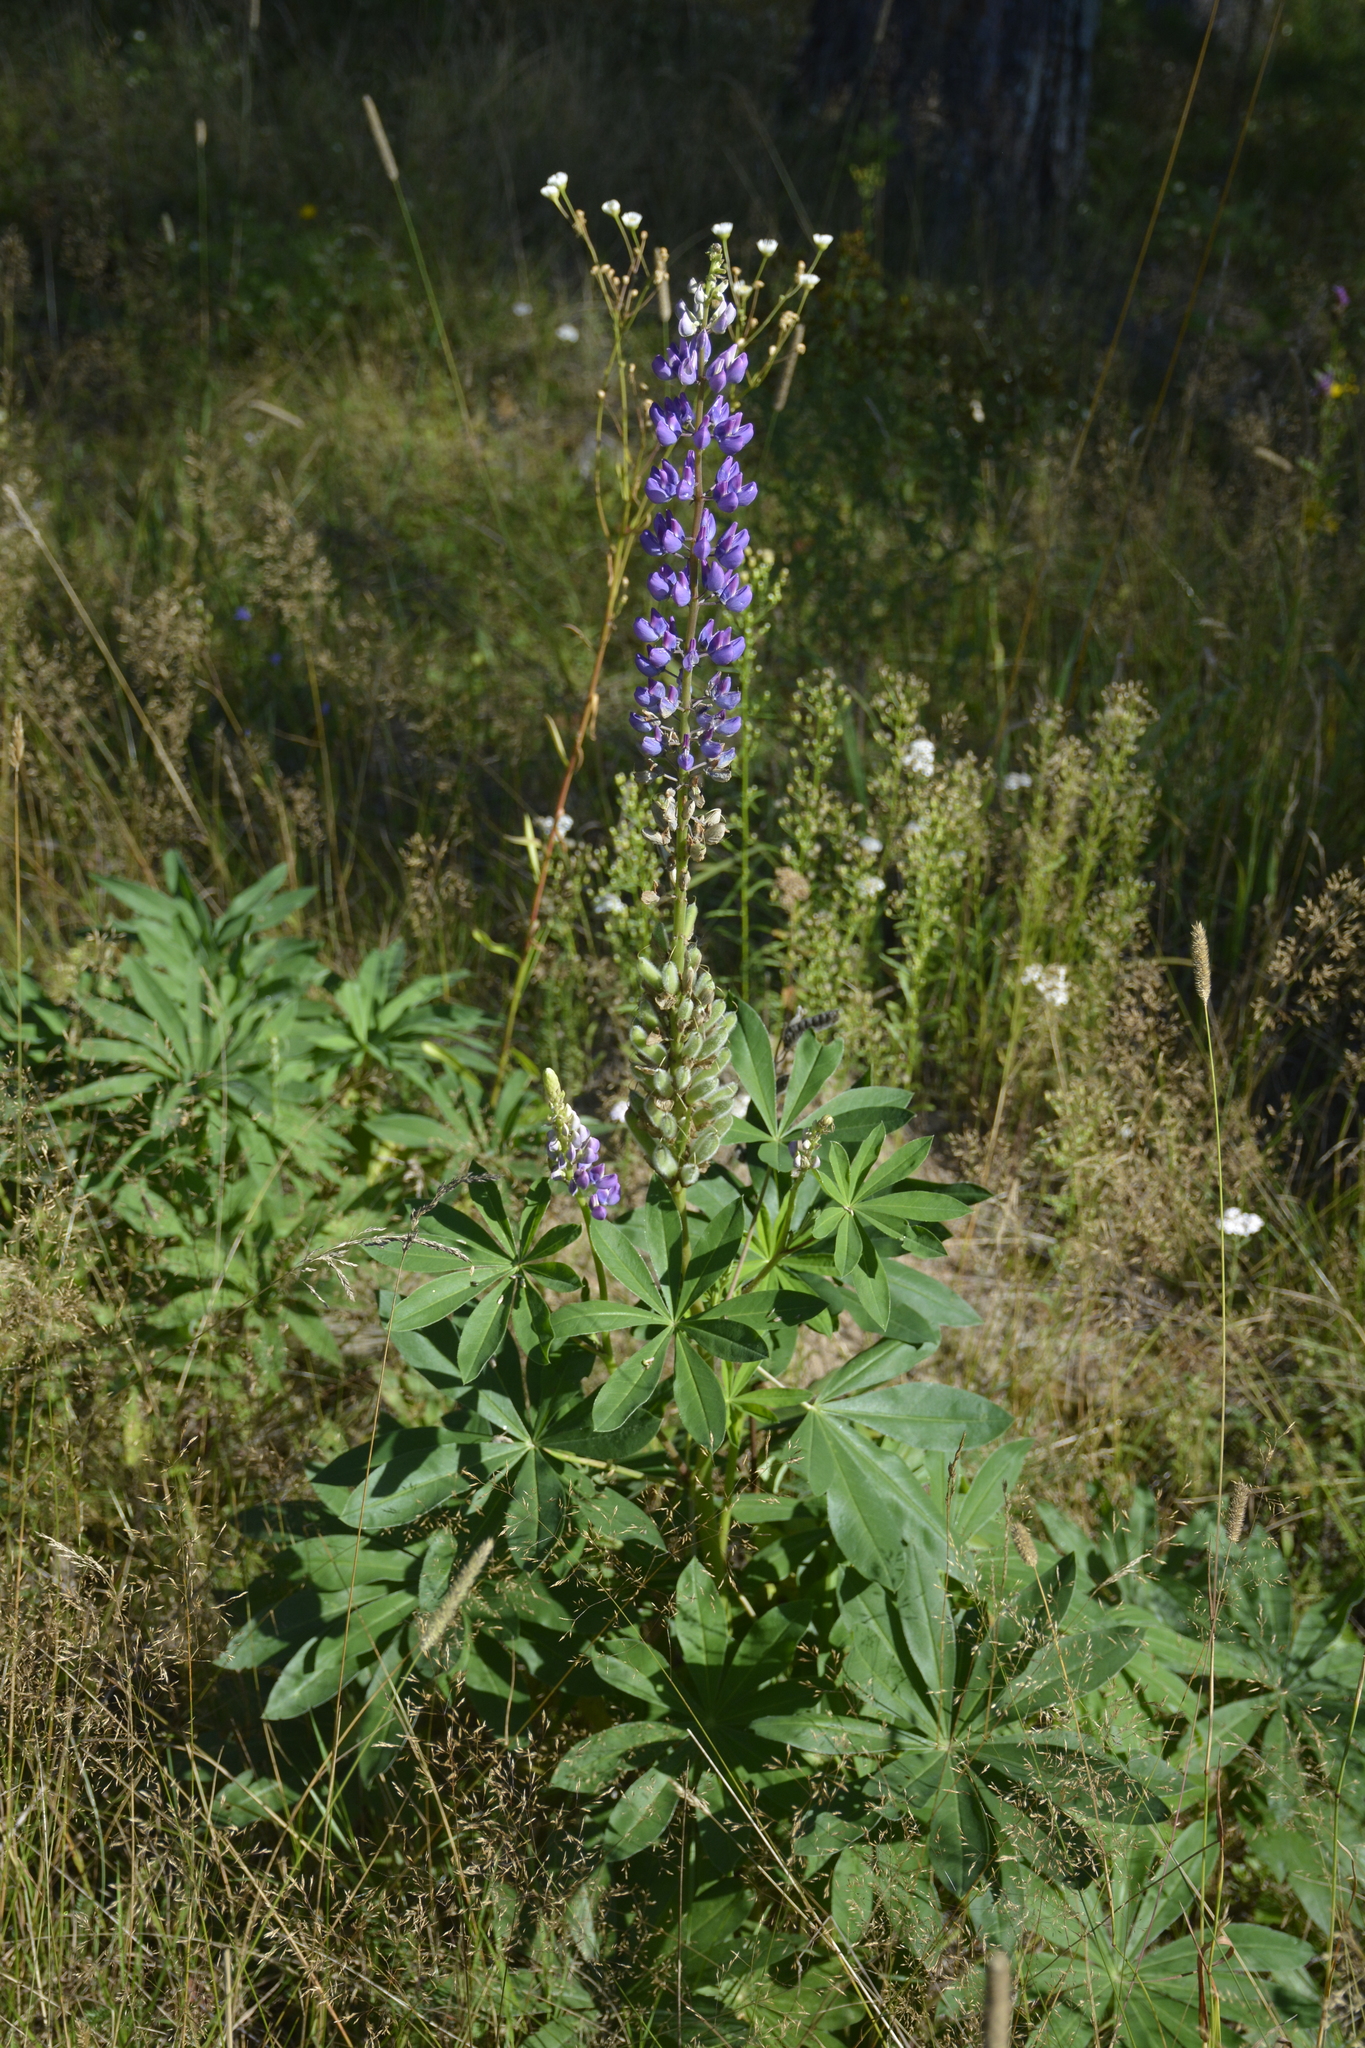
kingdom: Plantae
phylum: Tracheophyta
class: Magnoliopsida
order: Fabales
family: Fabaceae
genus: Lupinus
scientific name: Lupinus polyphyllus
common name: Garden lupin
